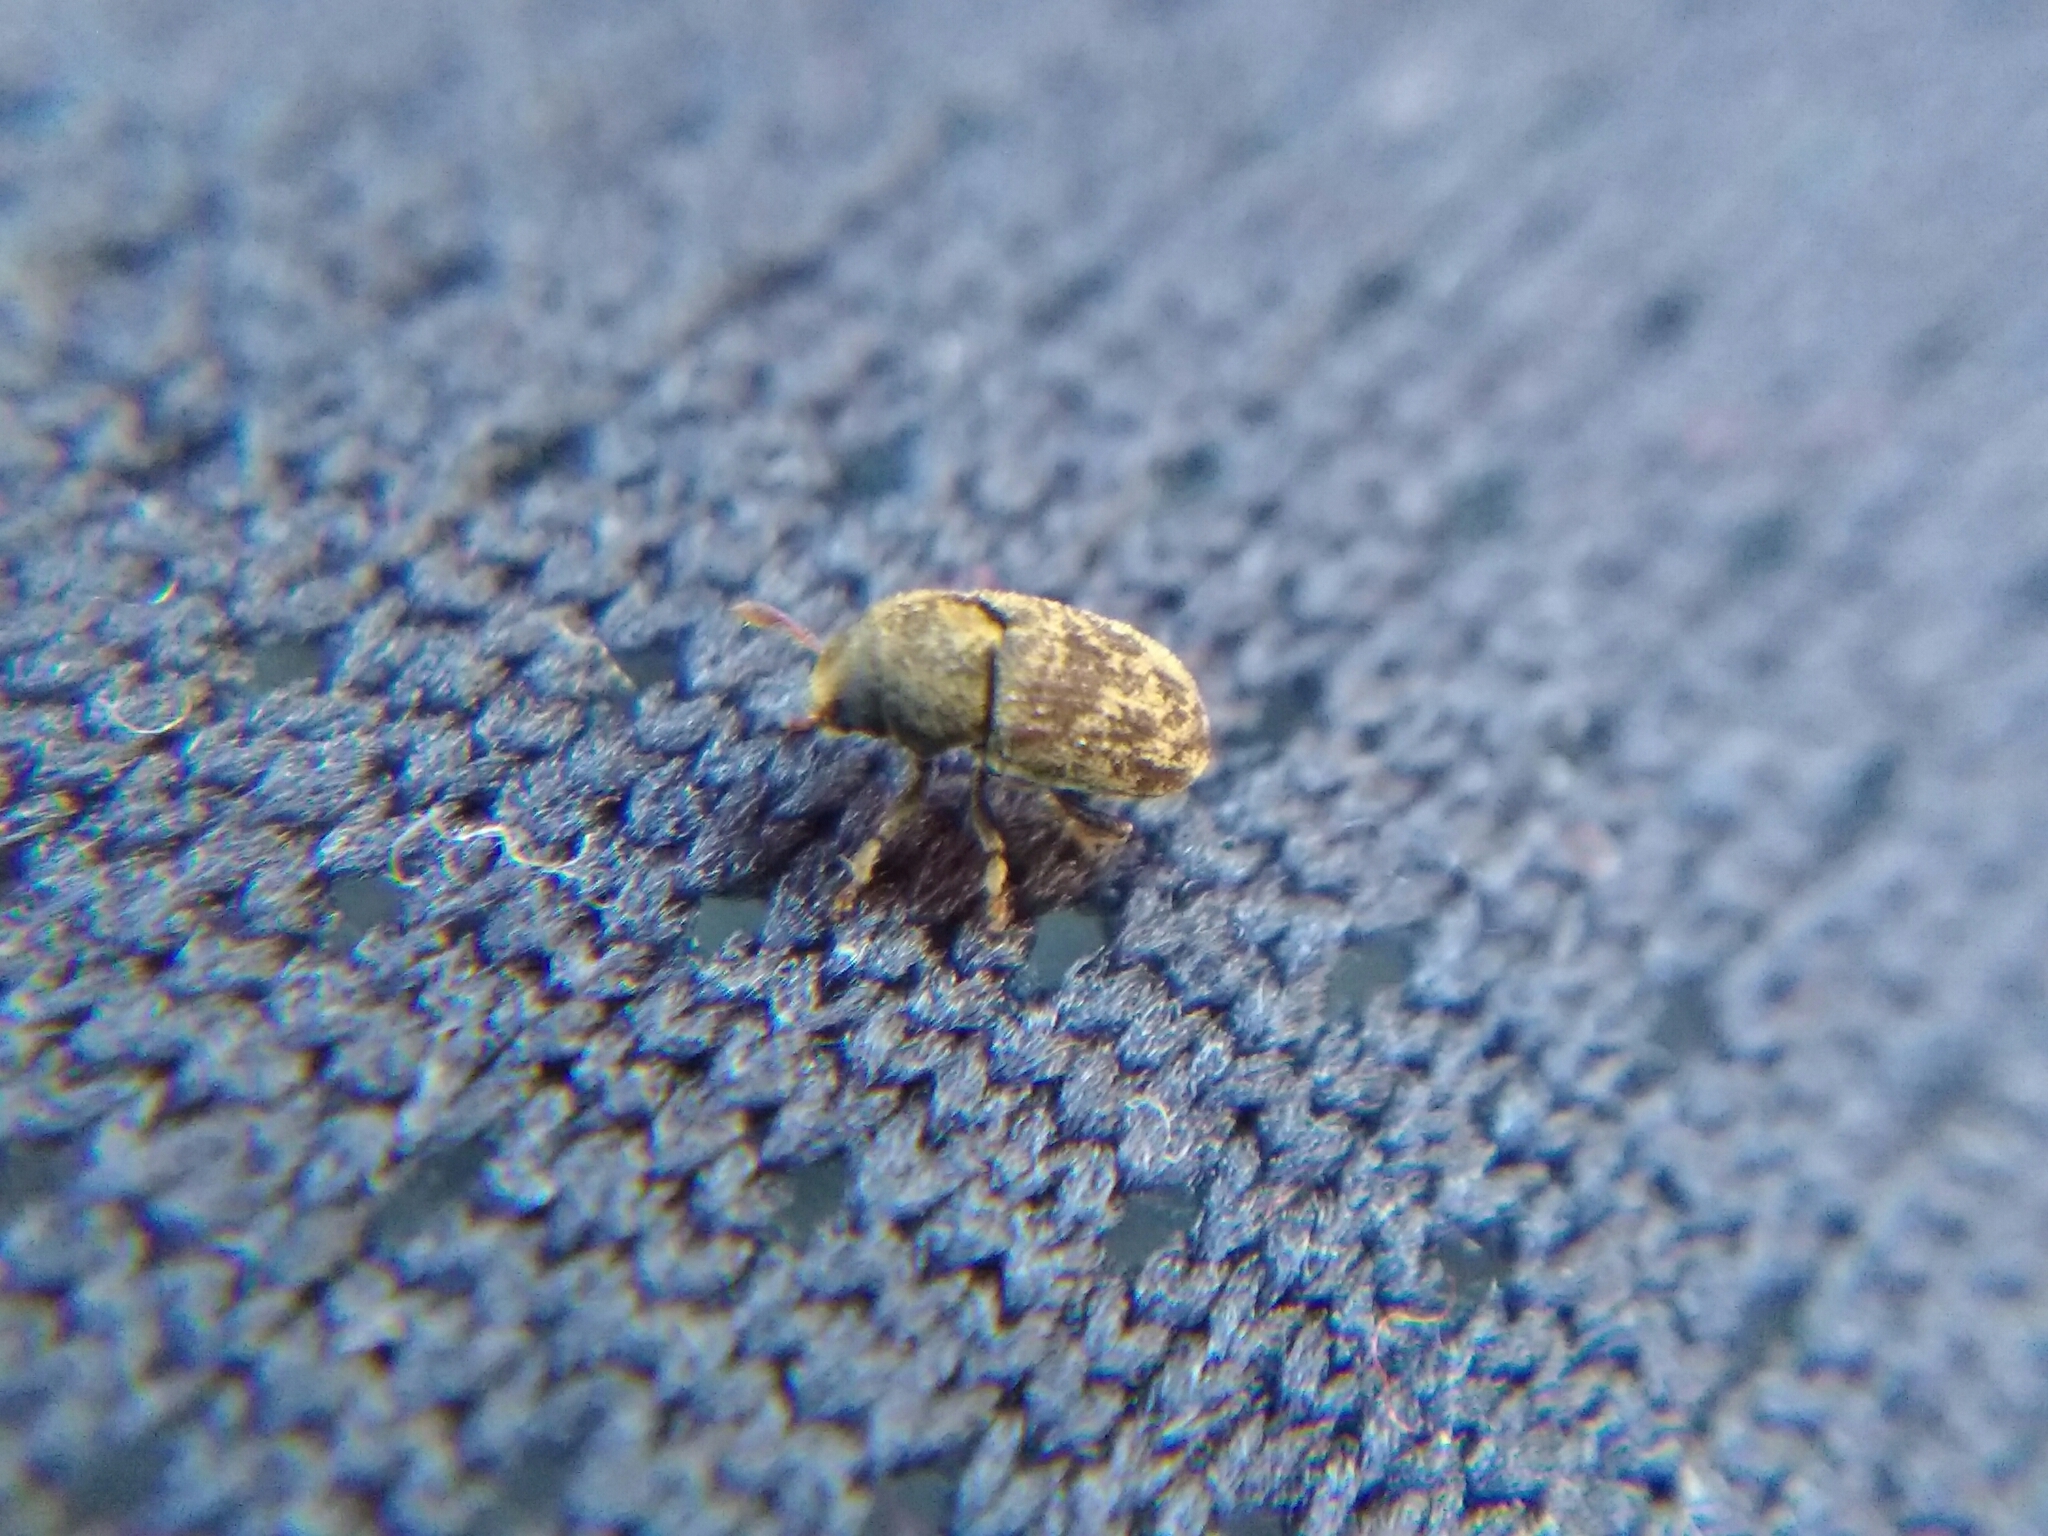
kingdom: Animalia
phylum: Arthropoda
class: Insecta
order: Coleoptera
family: Curculionidae
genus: Hylesinus
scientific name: Hylesinus varius
